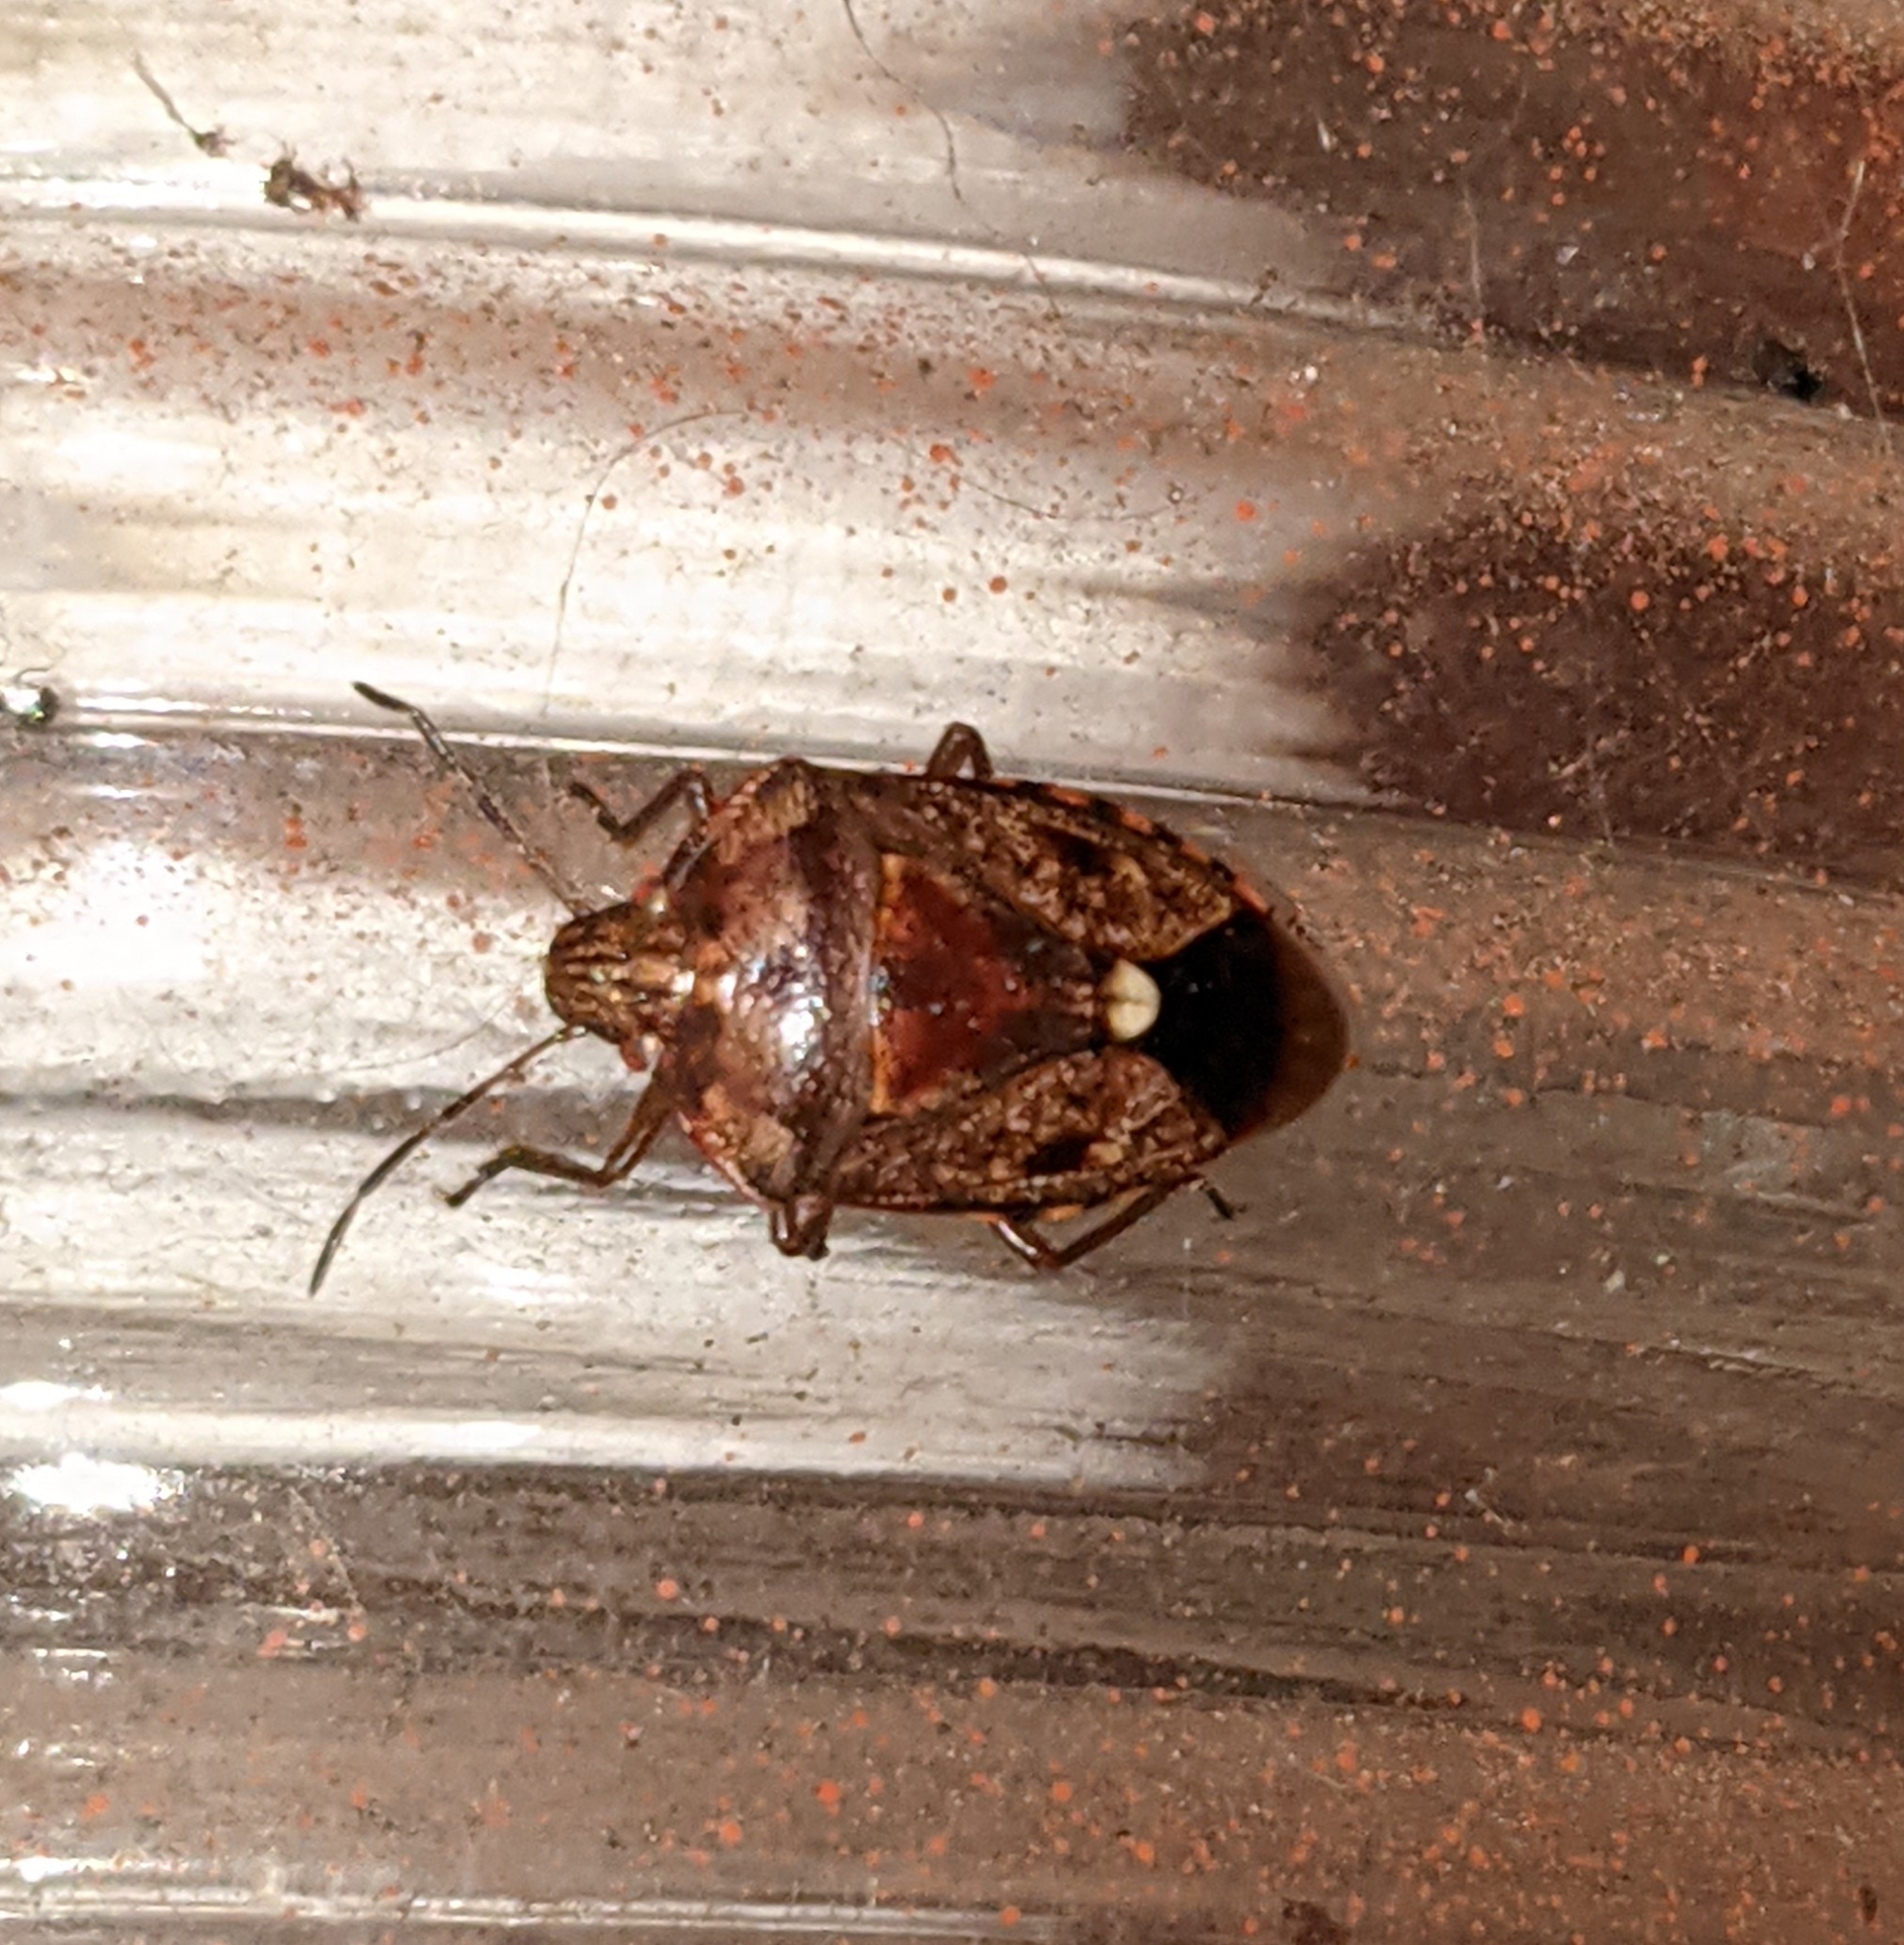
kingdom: Animalia
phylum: Arthropoda
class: Insecta
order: Hemiptera
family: Pentatomidae
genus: Banasa
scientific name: Banasa sordida
